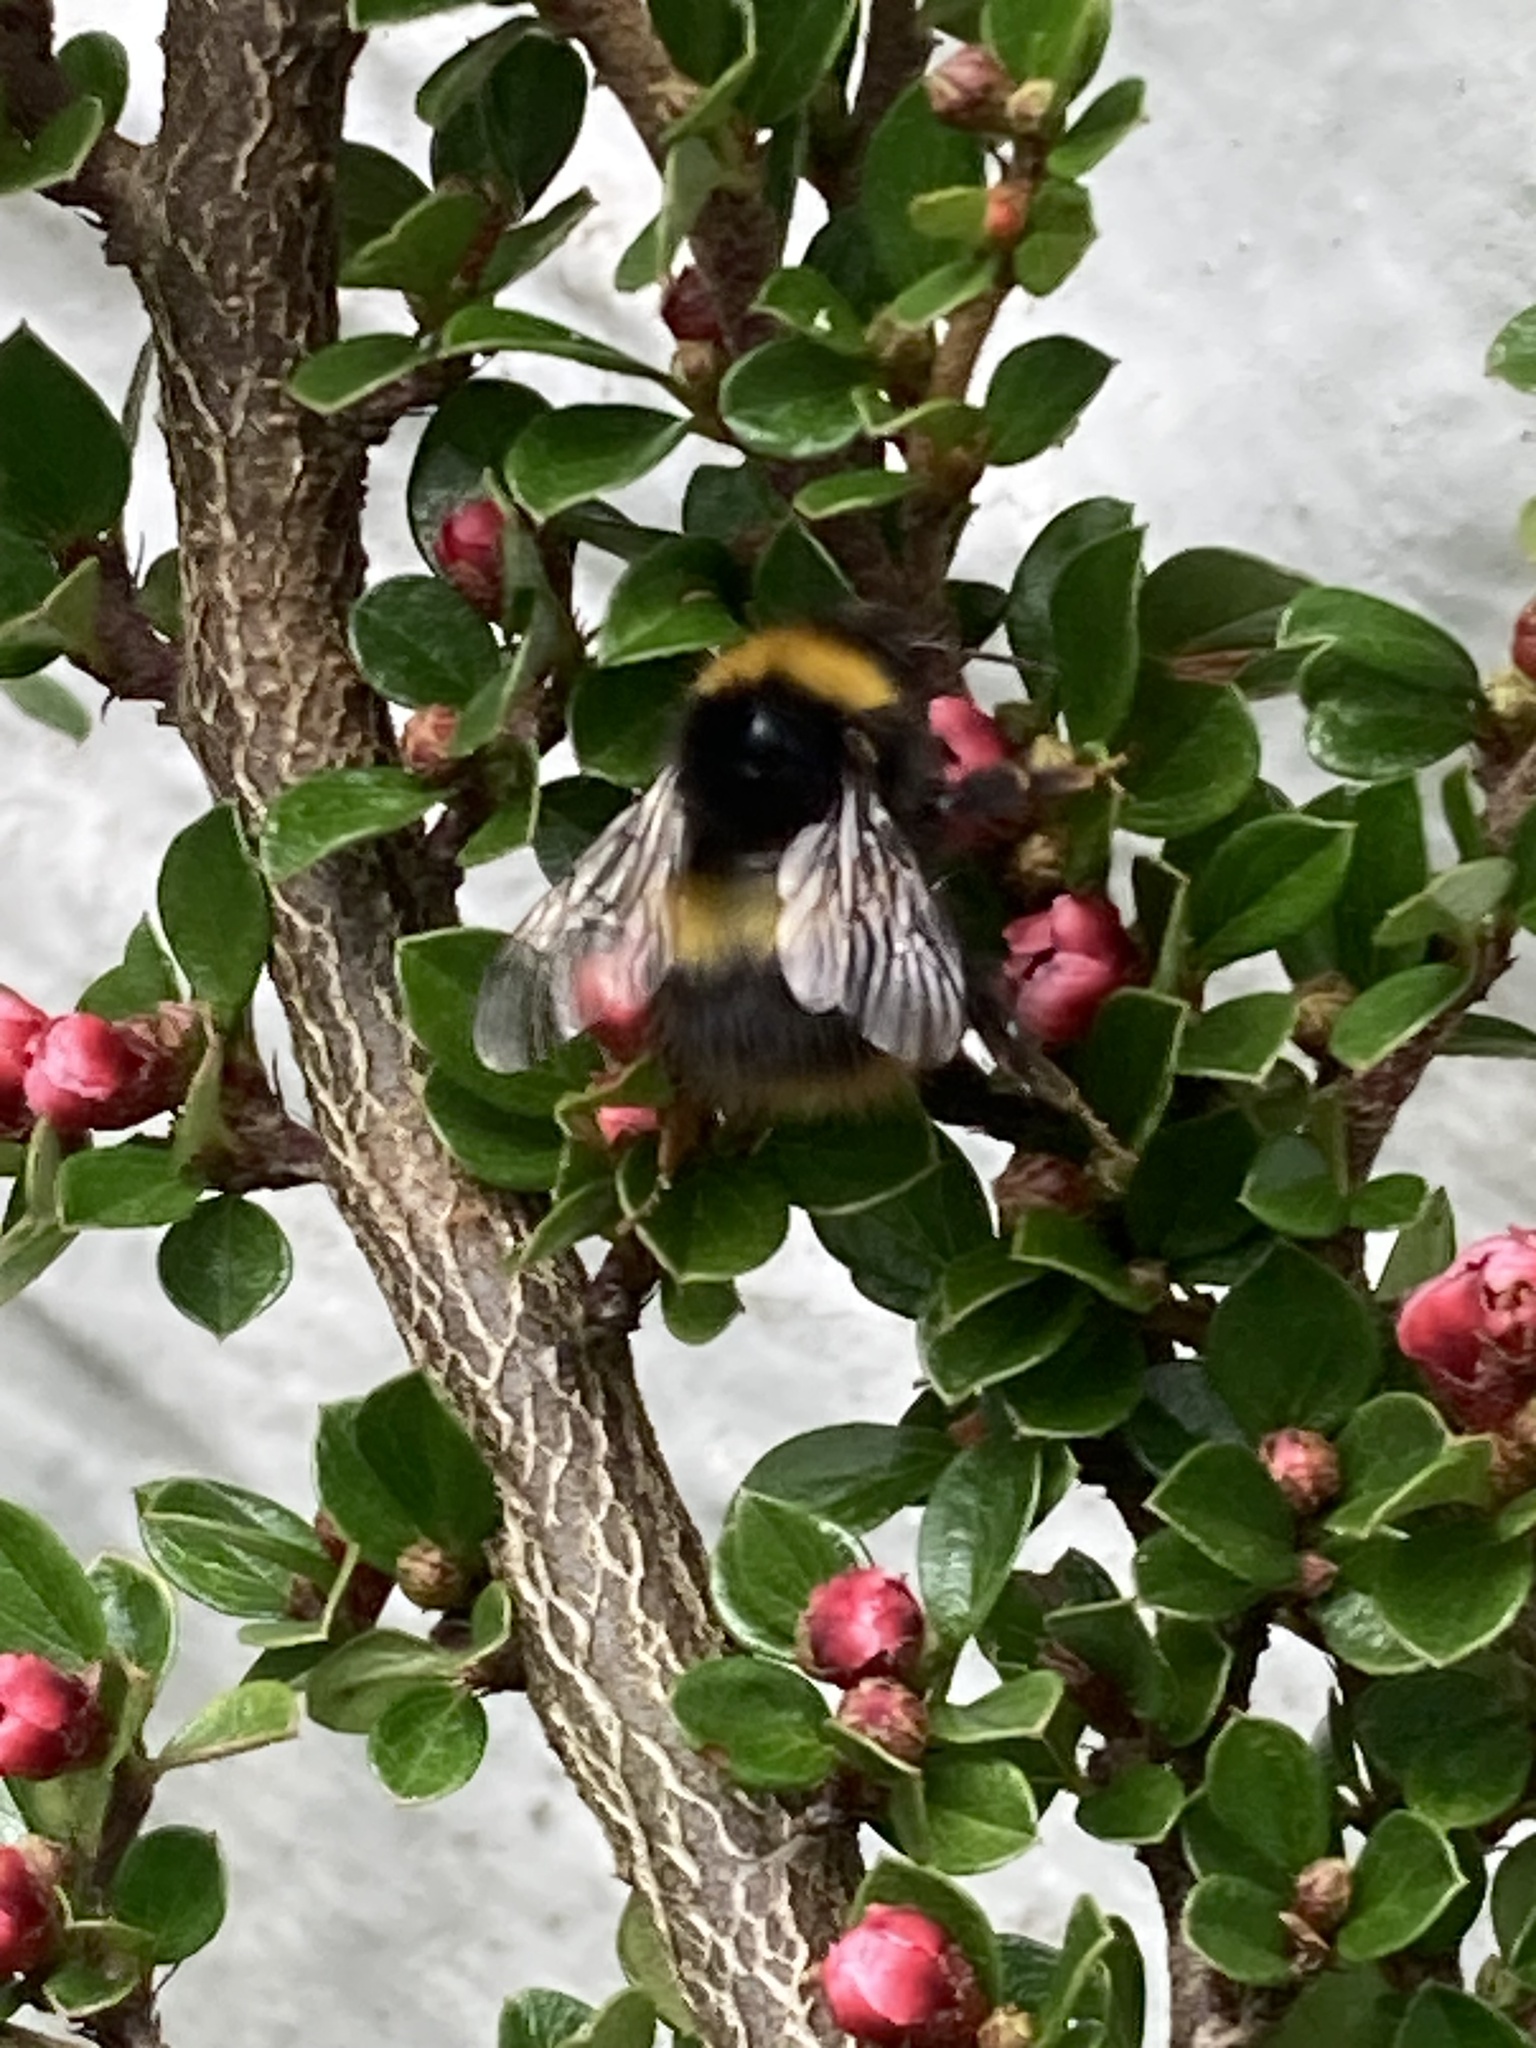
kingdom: Animalia
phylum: Arthropoda
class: Insecta
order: Hymenoptera
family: Apidae
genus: Bombus
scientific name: Bombus pratorum
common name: Early humble-bee
